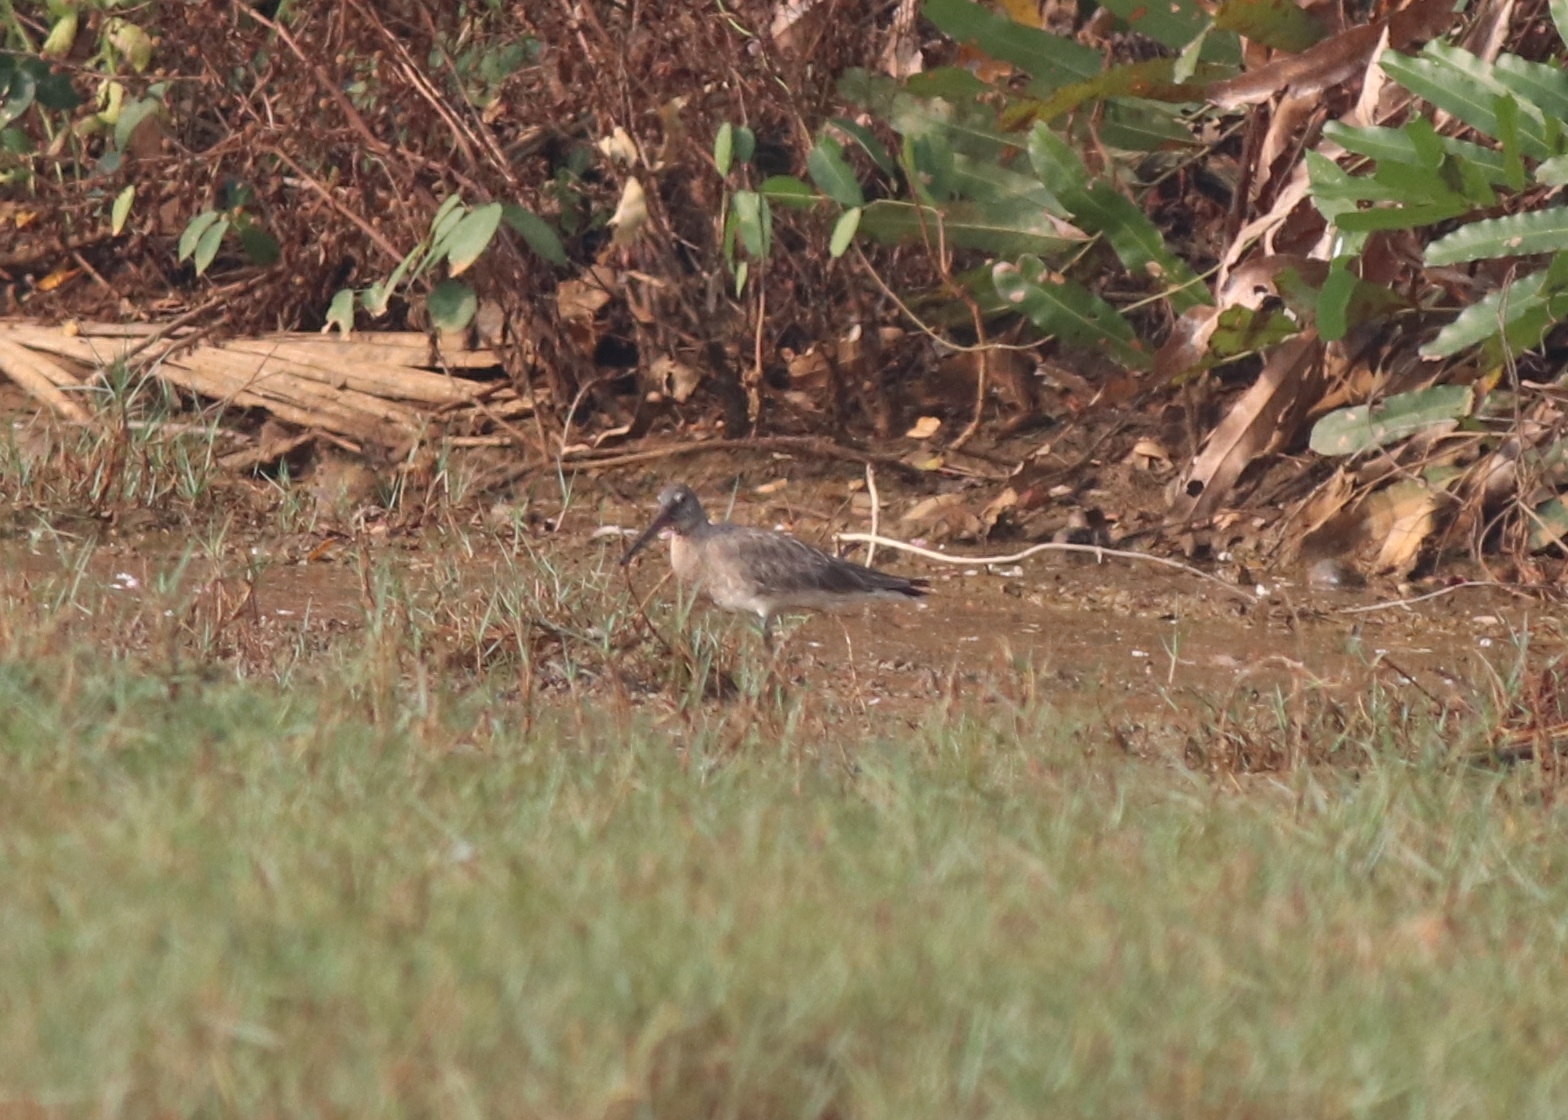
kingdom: Animalia
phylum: Chordata
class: Aves
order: Charadriiformes
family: Scolopacidae
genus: Limosa
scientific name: Limosa limosa
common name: Black-tailed godwit
